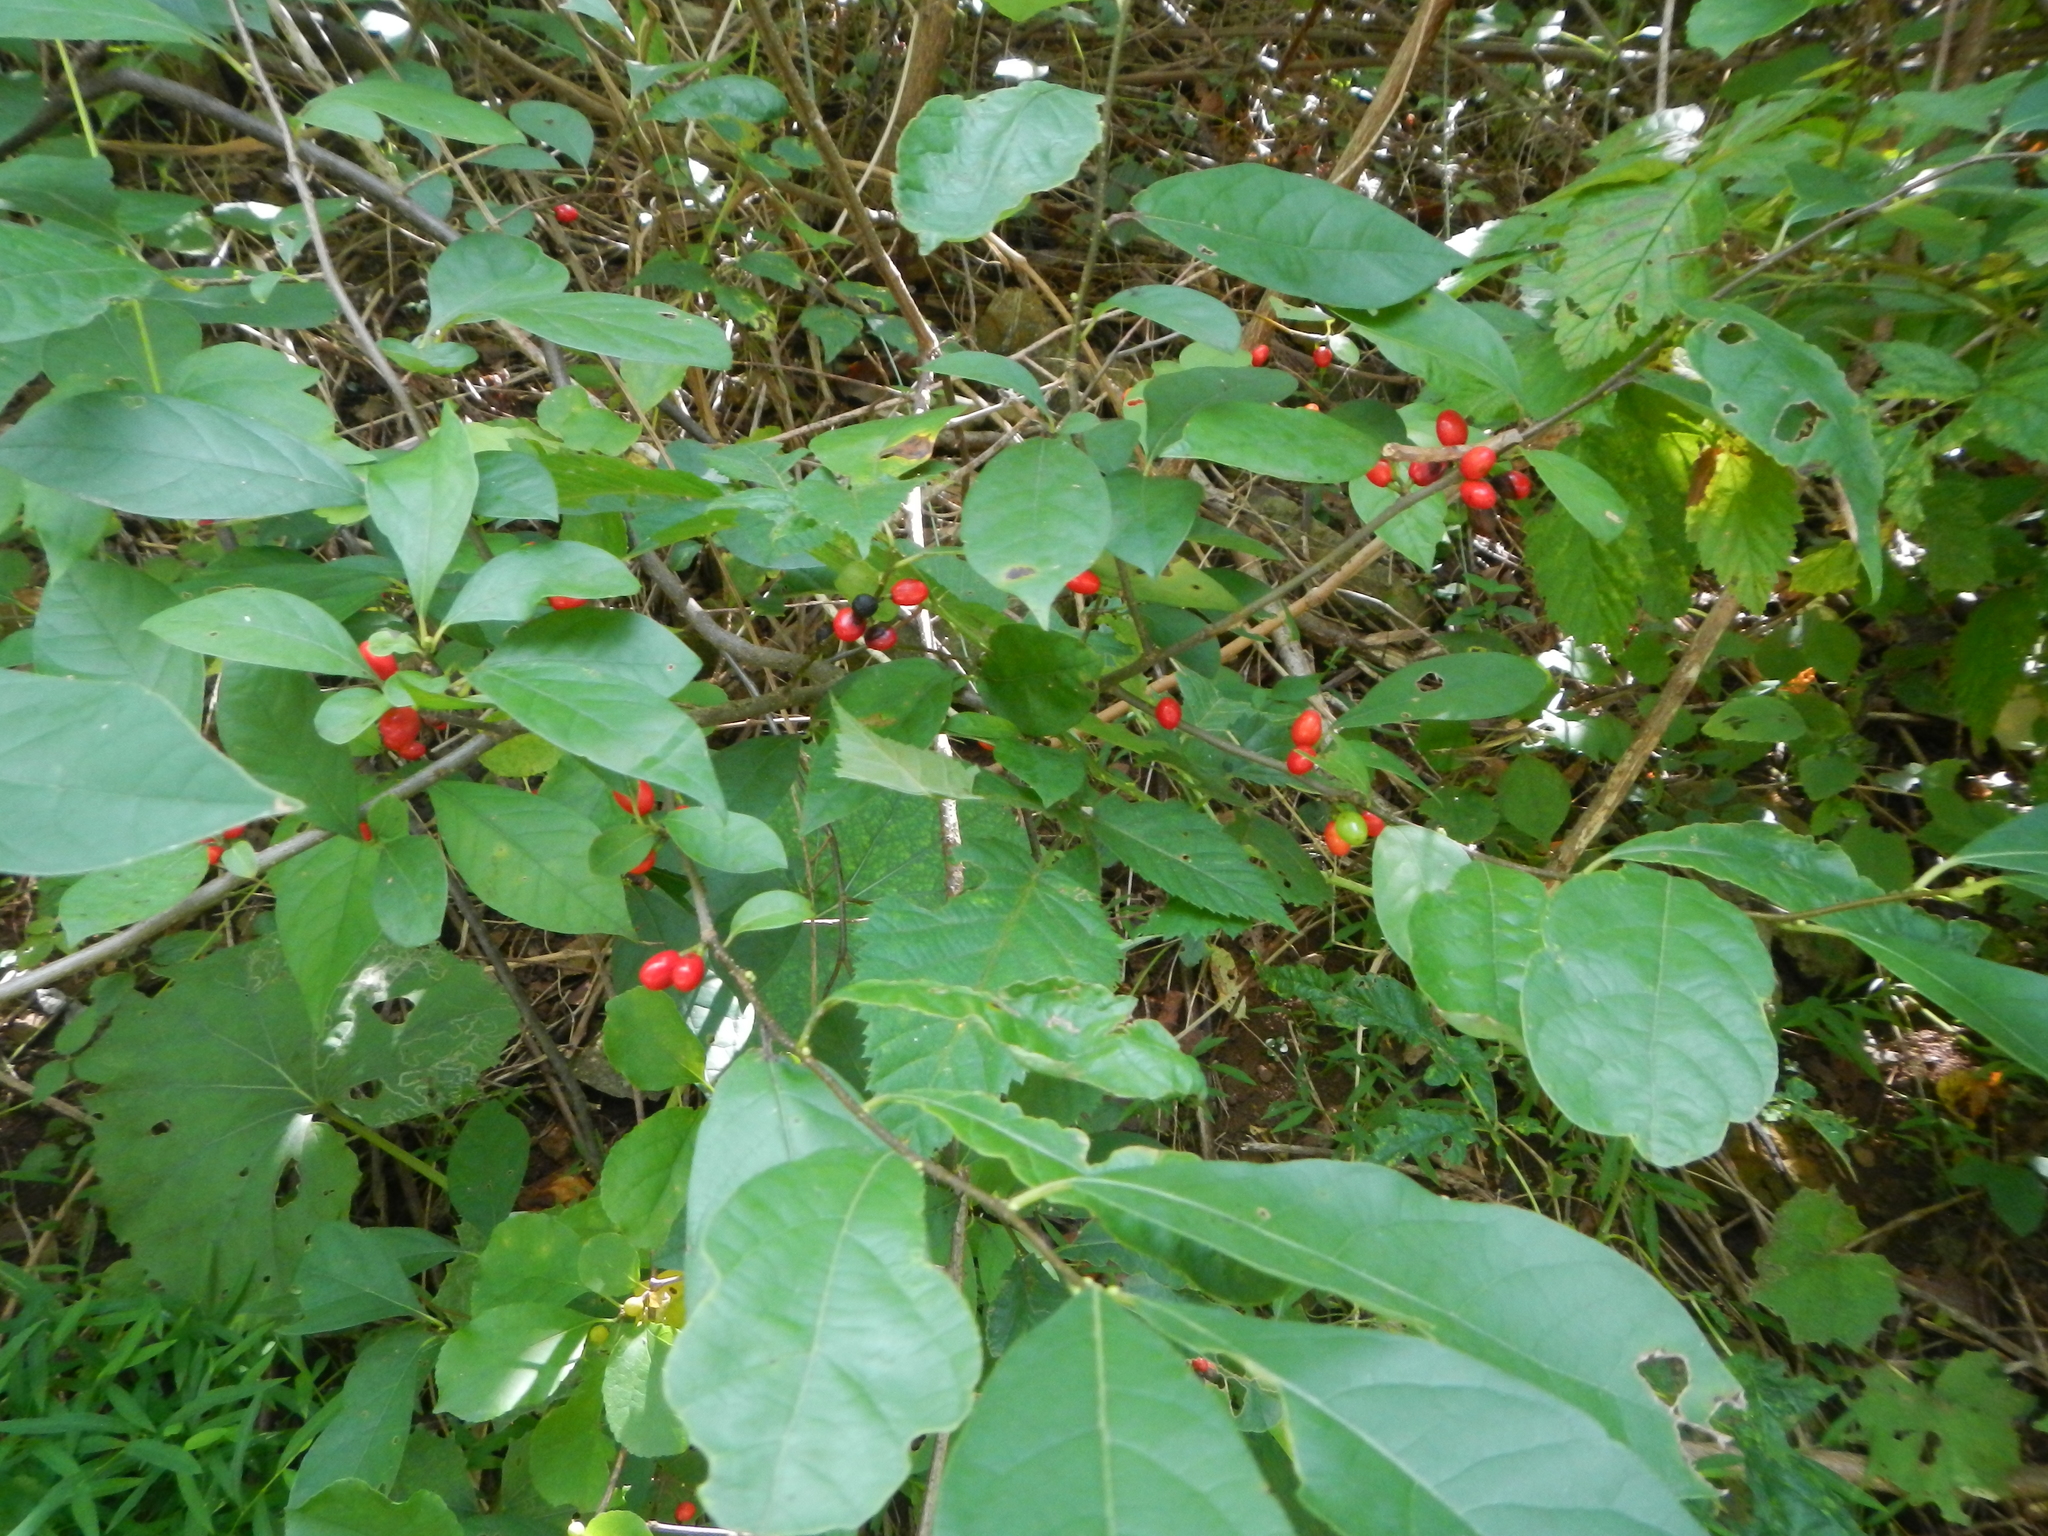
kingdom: Plantae
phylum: Tracheophyta
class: Magnoliopsida
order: Laurales
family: Lauraceae
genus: Lindera
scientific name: Lindera benzoin
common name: Spicebush
